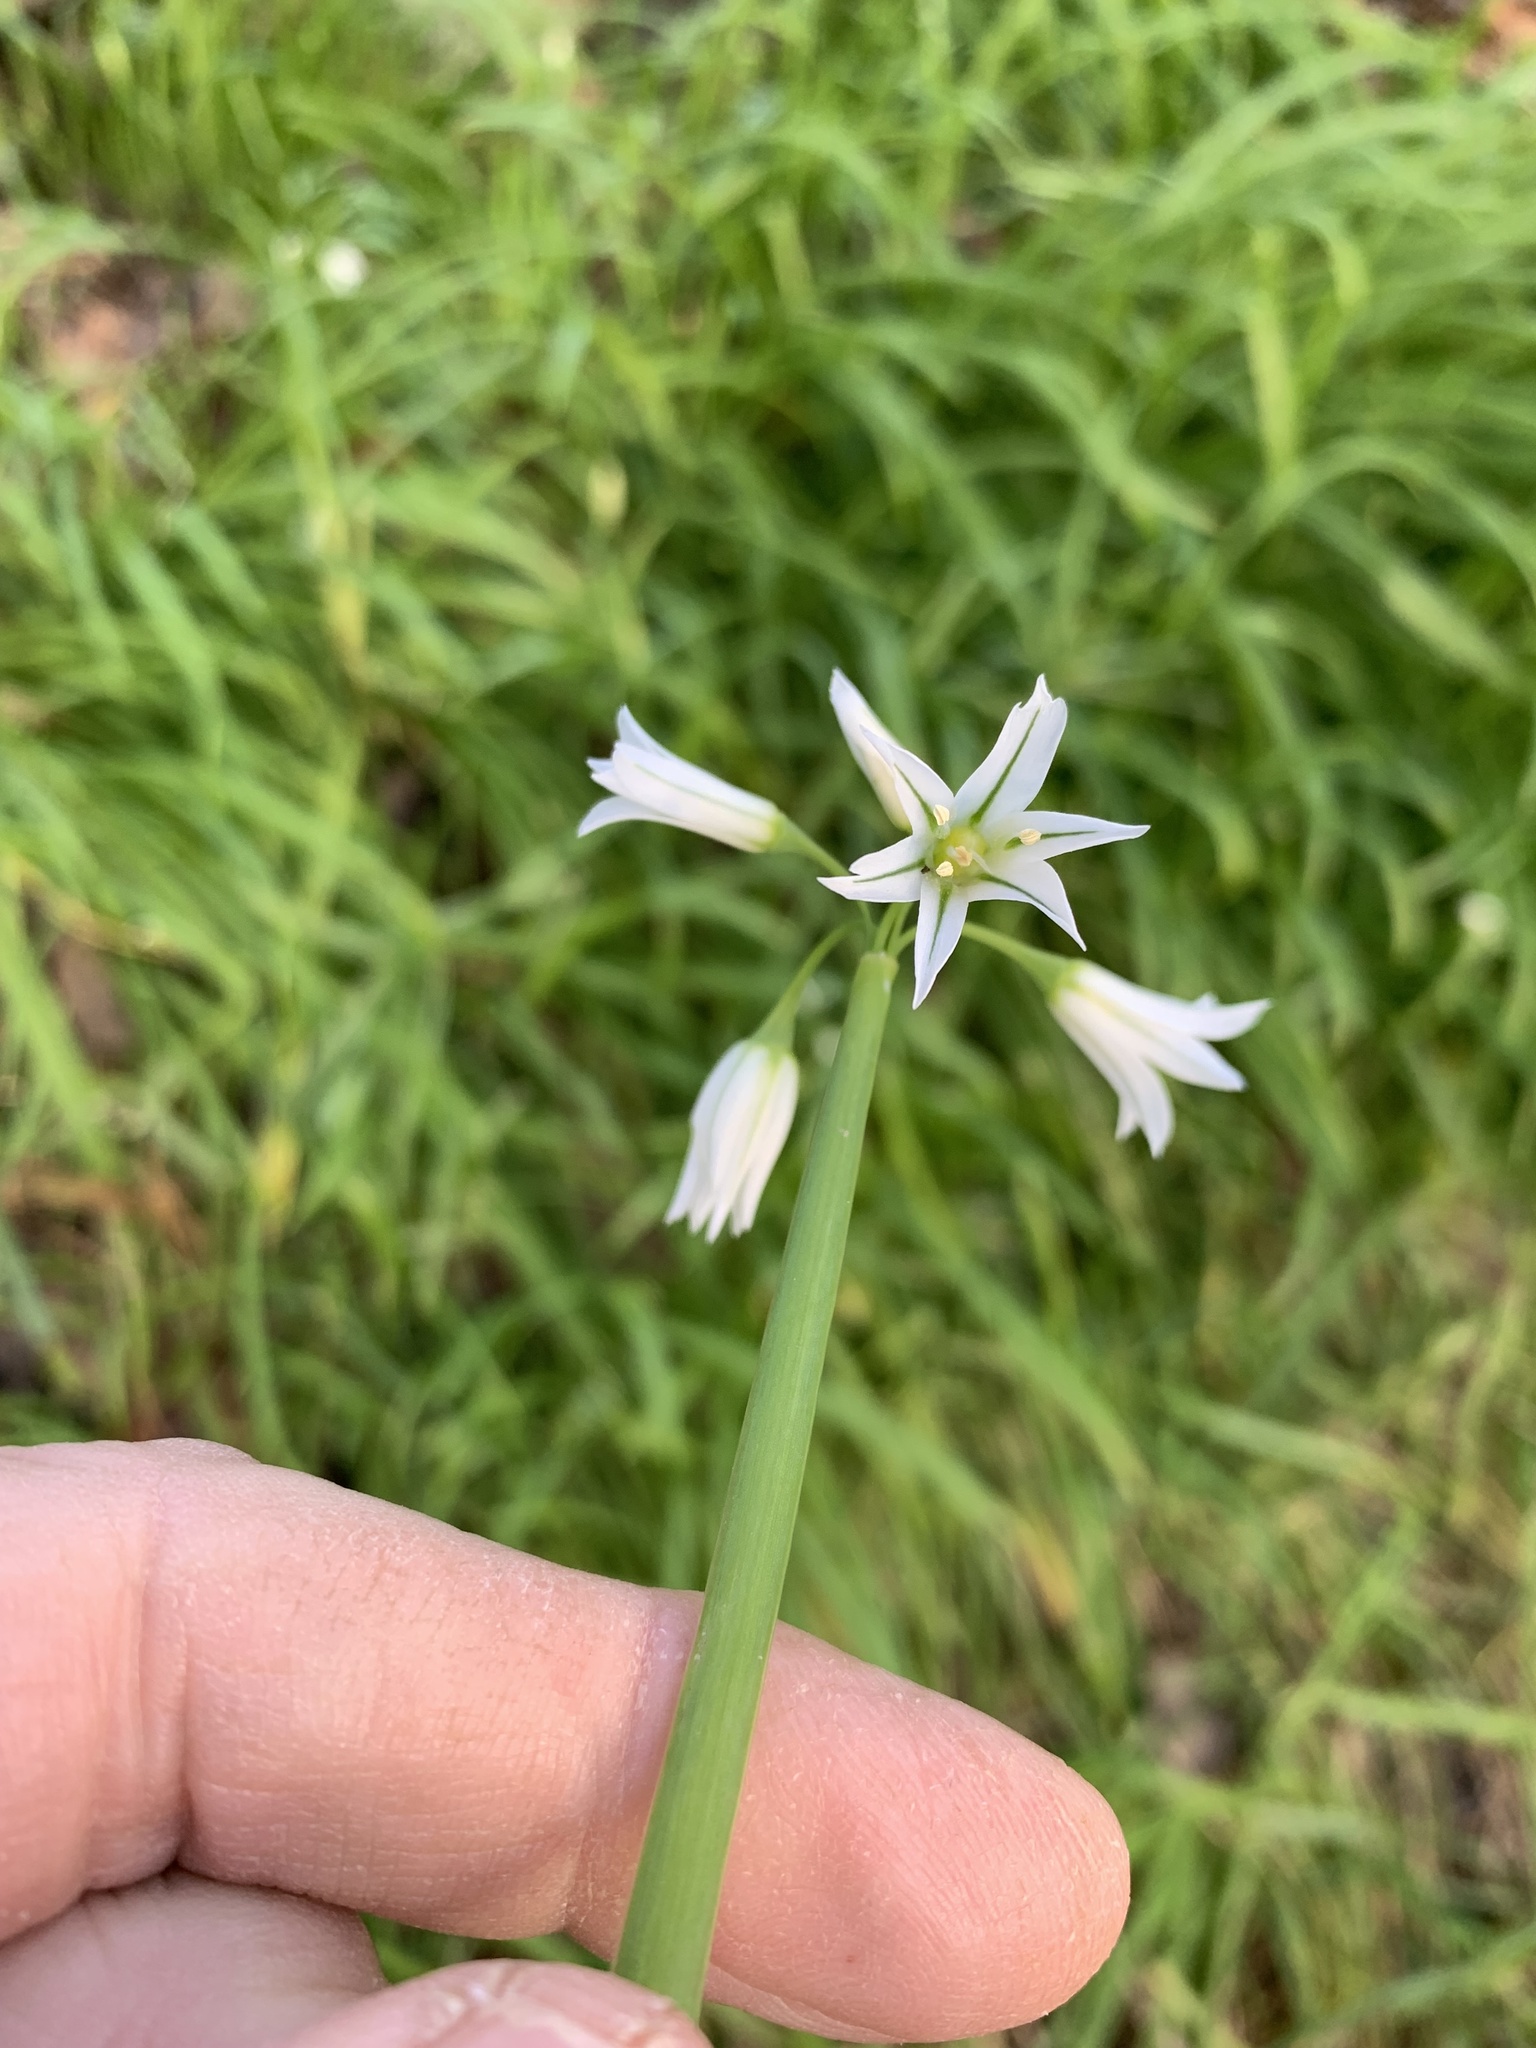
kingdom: Plantae
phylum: Tracheophyta
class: Liliopsida
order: Asparagales
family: Amaryllidaceae
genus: Allium
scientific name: Allium triquetrum
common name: Three-cornered garlic
